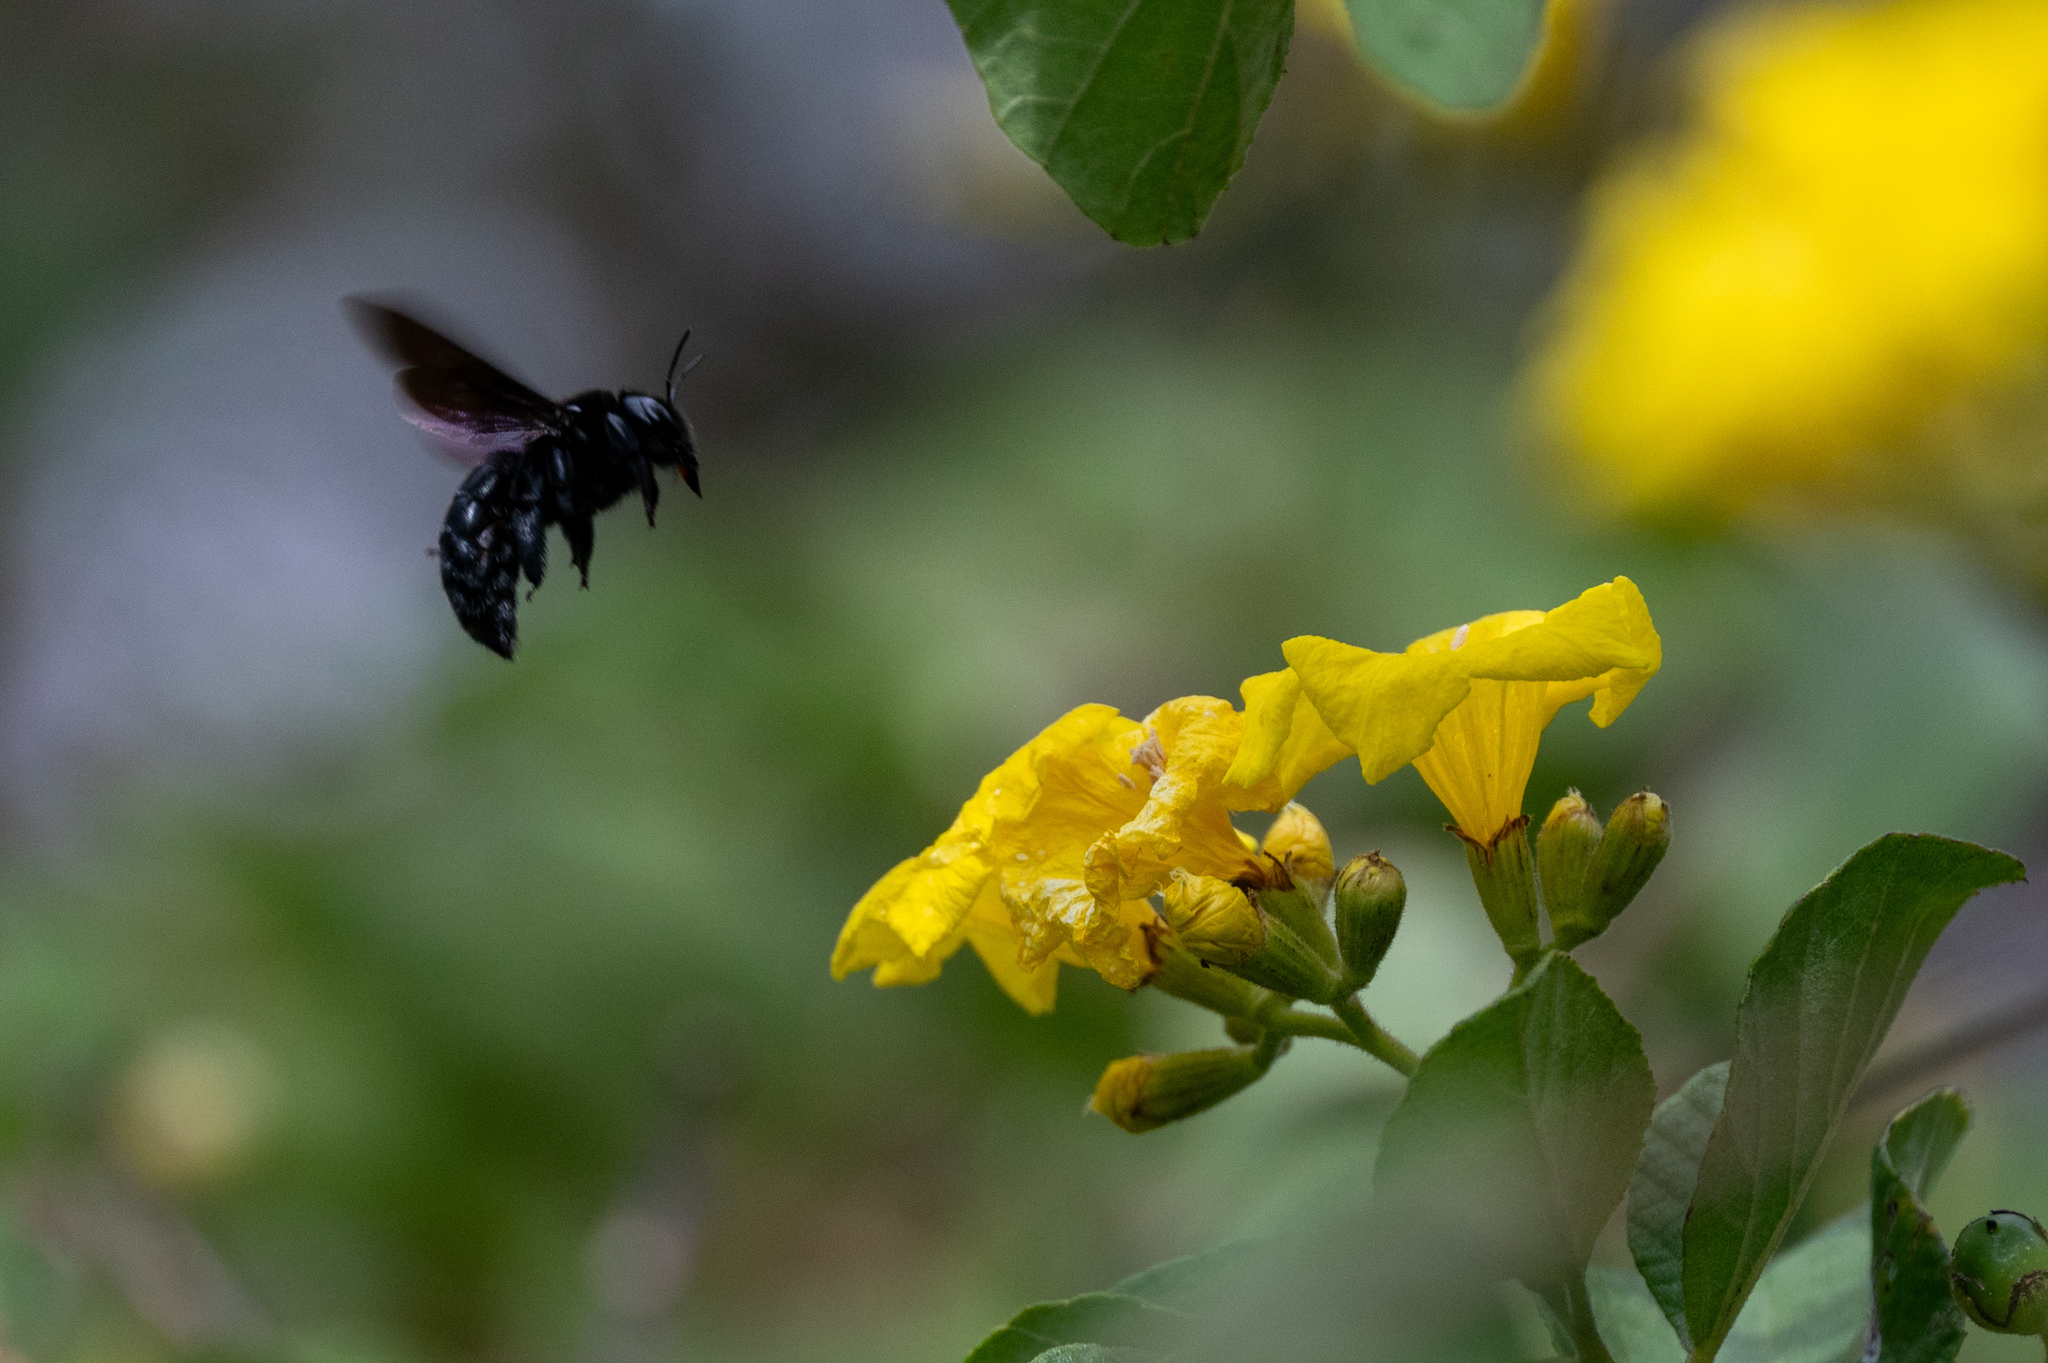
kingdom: Animalia
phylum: Arthropoda
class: Insecta
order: Hymenoptera
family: Apidae
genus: Xylocopa
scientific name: Xylocopa darwini
